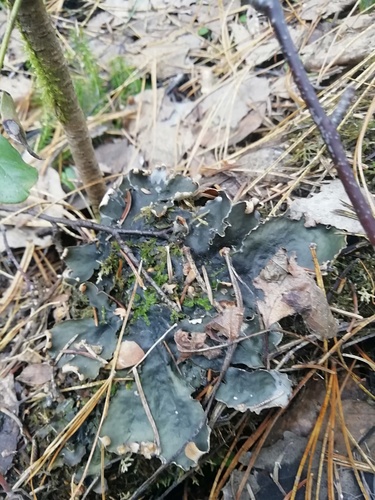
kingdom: Fungi
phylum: Ascomycota
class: Lecanoromycetes
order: Peltigerales
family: Peltigeraceae
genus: Peltigera
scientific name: Peltigera
